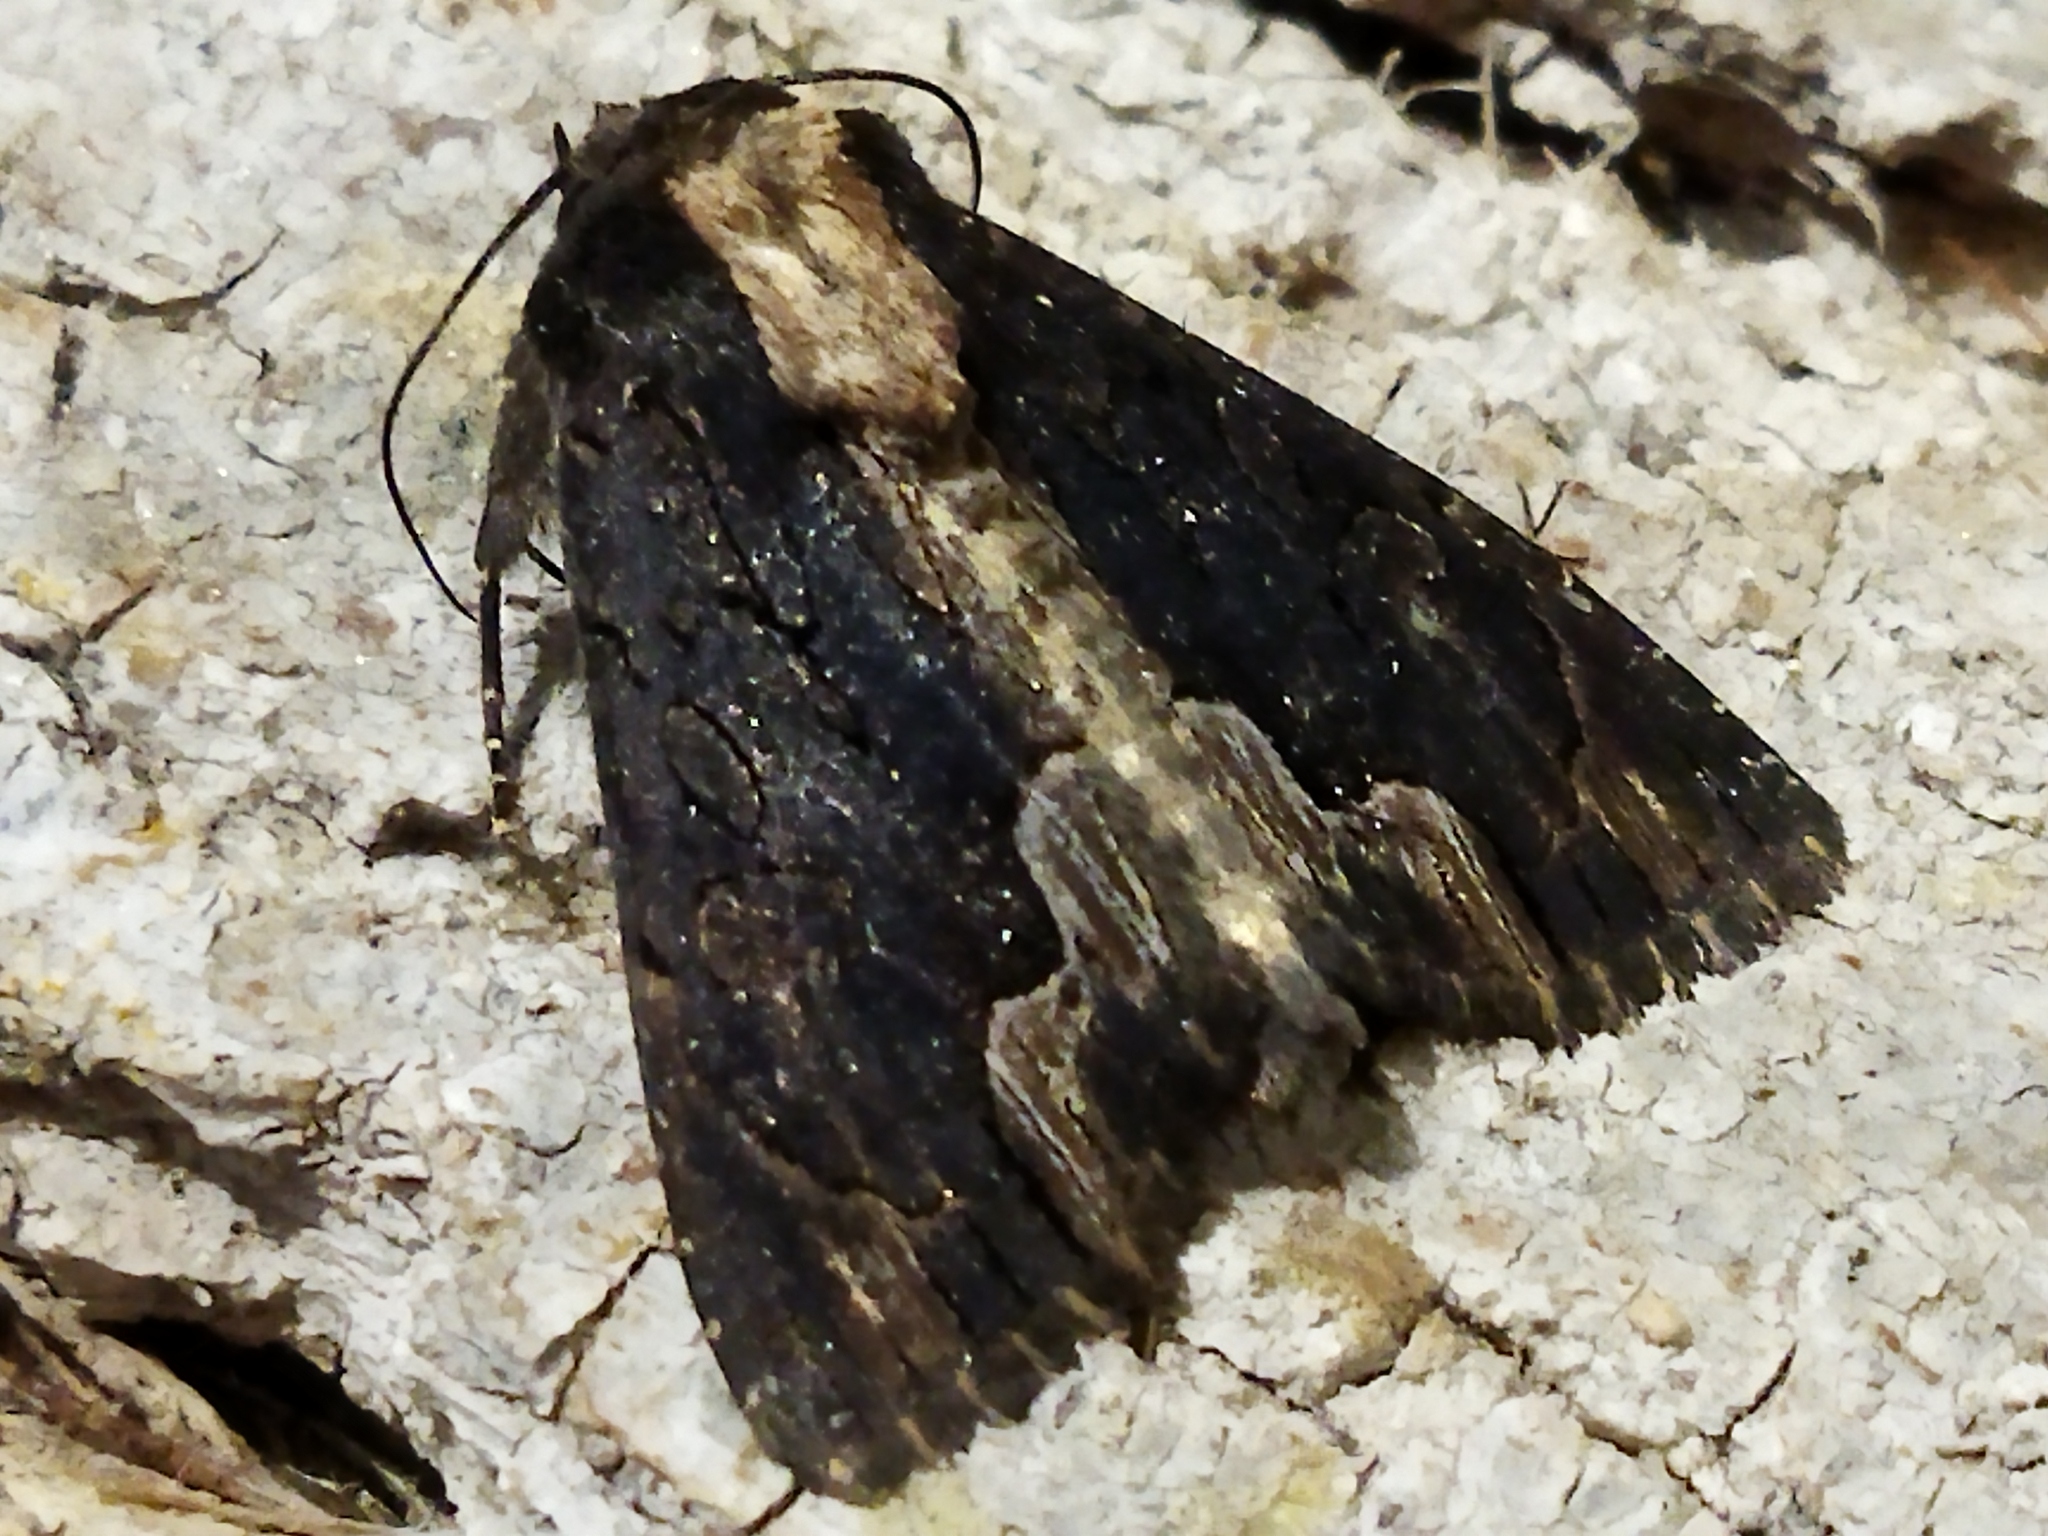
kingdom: Animalia
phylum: Arthropoda
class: Insecta
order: Lepidoptera
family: Noctuidae
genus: Dypterygia
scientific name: Dypterygia scabriuscula
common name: Bird's wing
